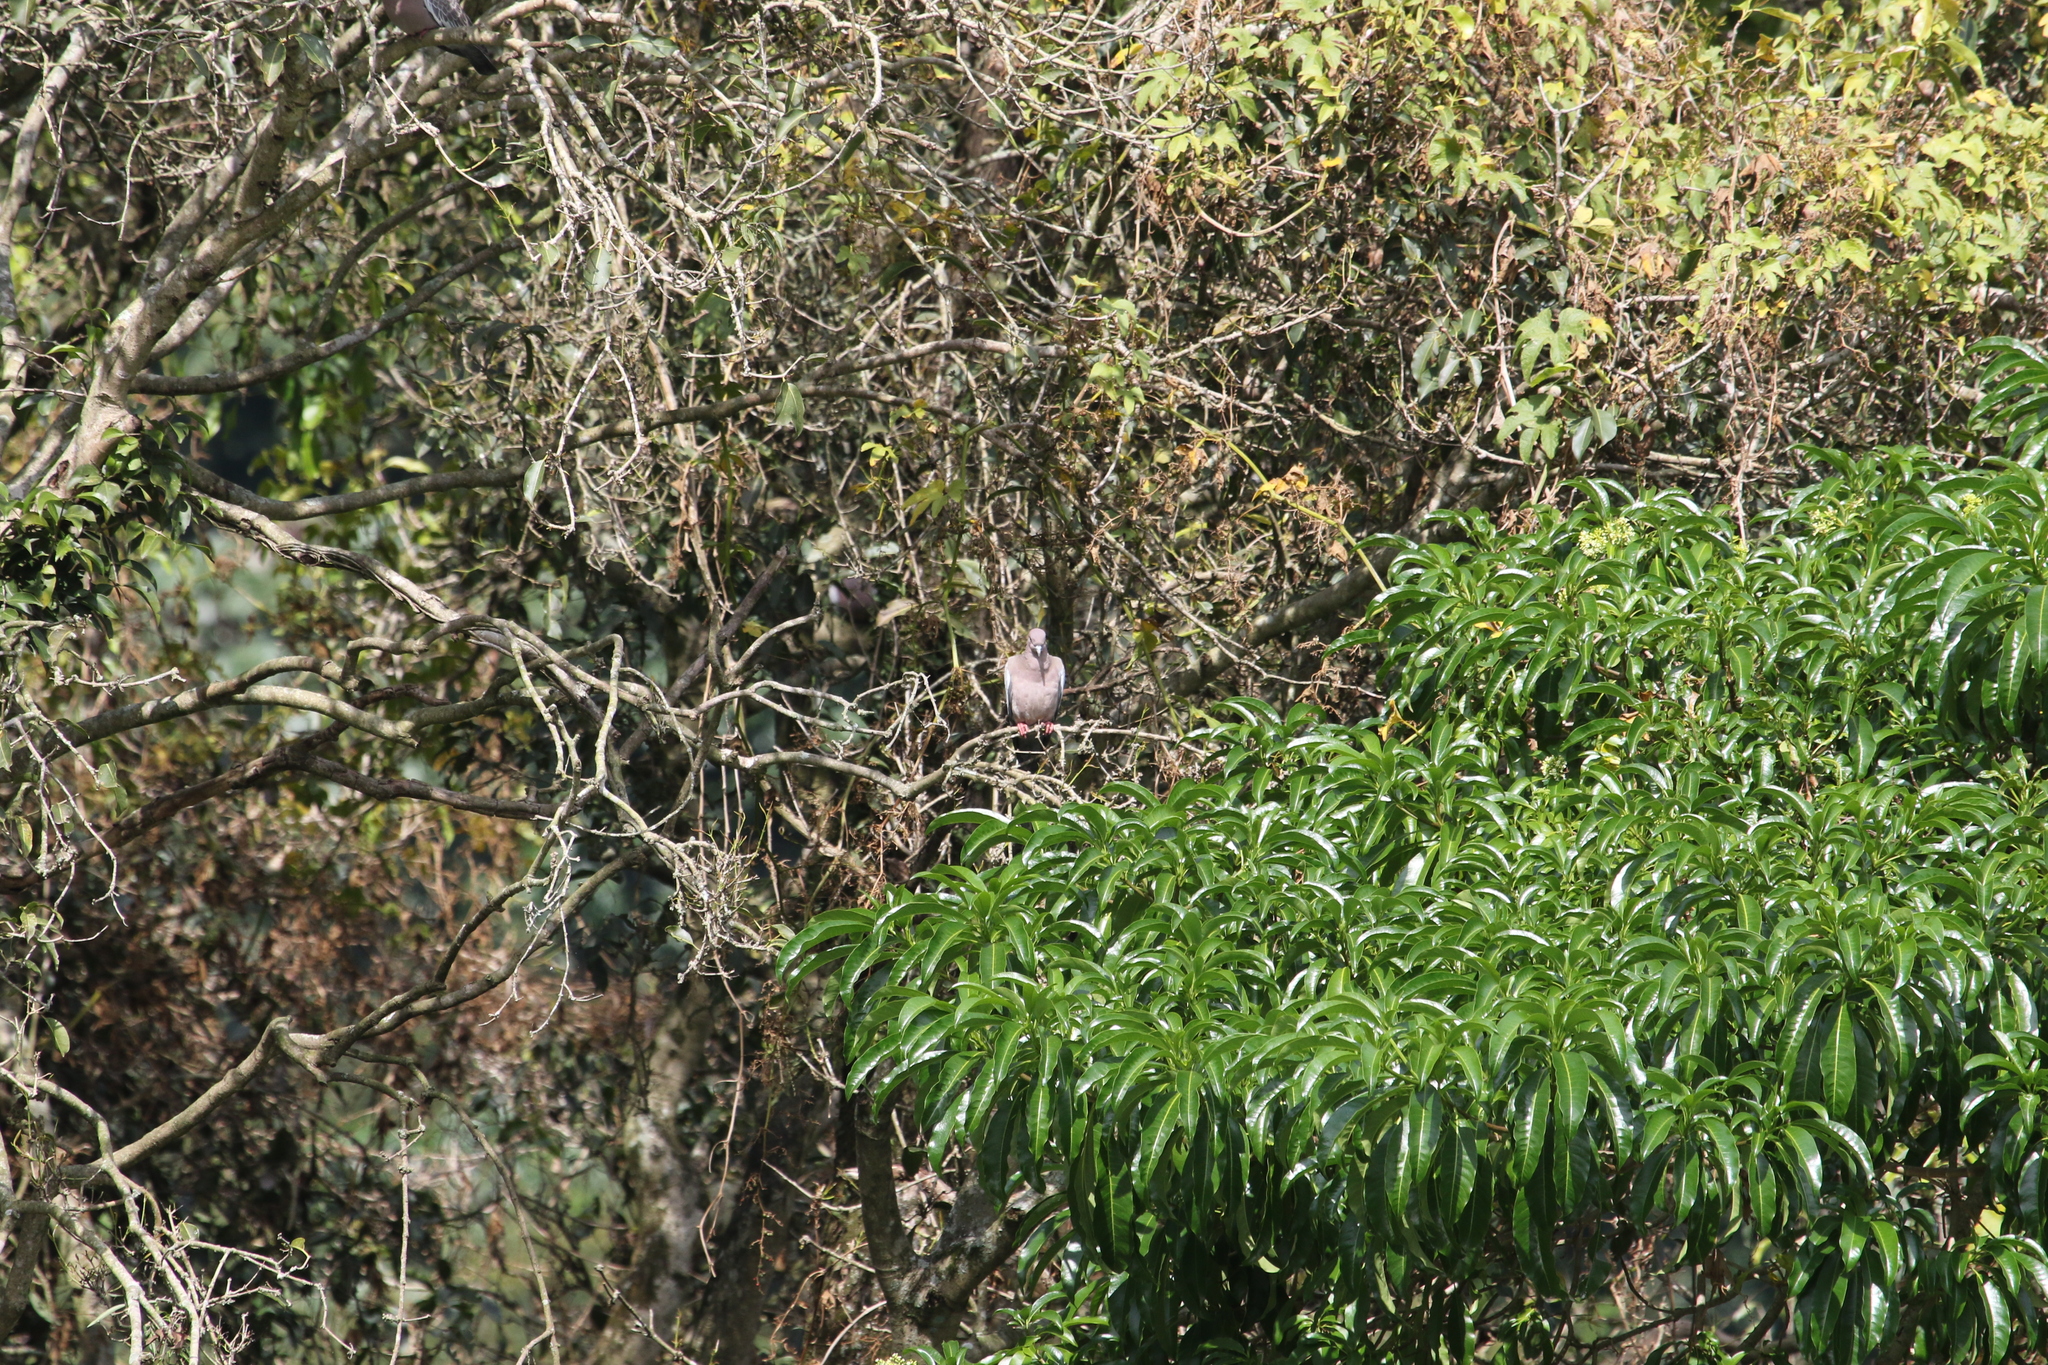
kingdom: Animalia
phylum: Chordata
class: Aves
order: Columbiformes
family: Columbidae
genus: Patagioenas
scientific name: Patagioenas picazuro
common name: Picazuro pigeon
